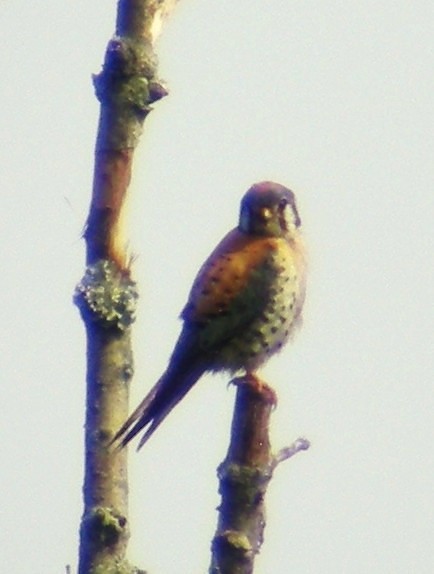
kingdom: Animalia
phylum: Chordata
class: Aves
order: Falconiformes
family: Falconidae
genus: Falco
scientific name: Falco sparverius
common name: American kestrel
